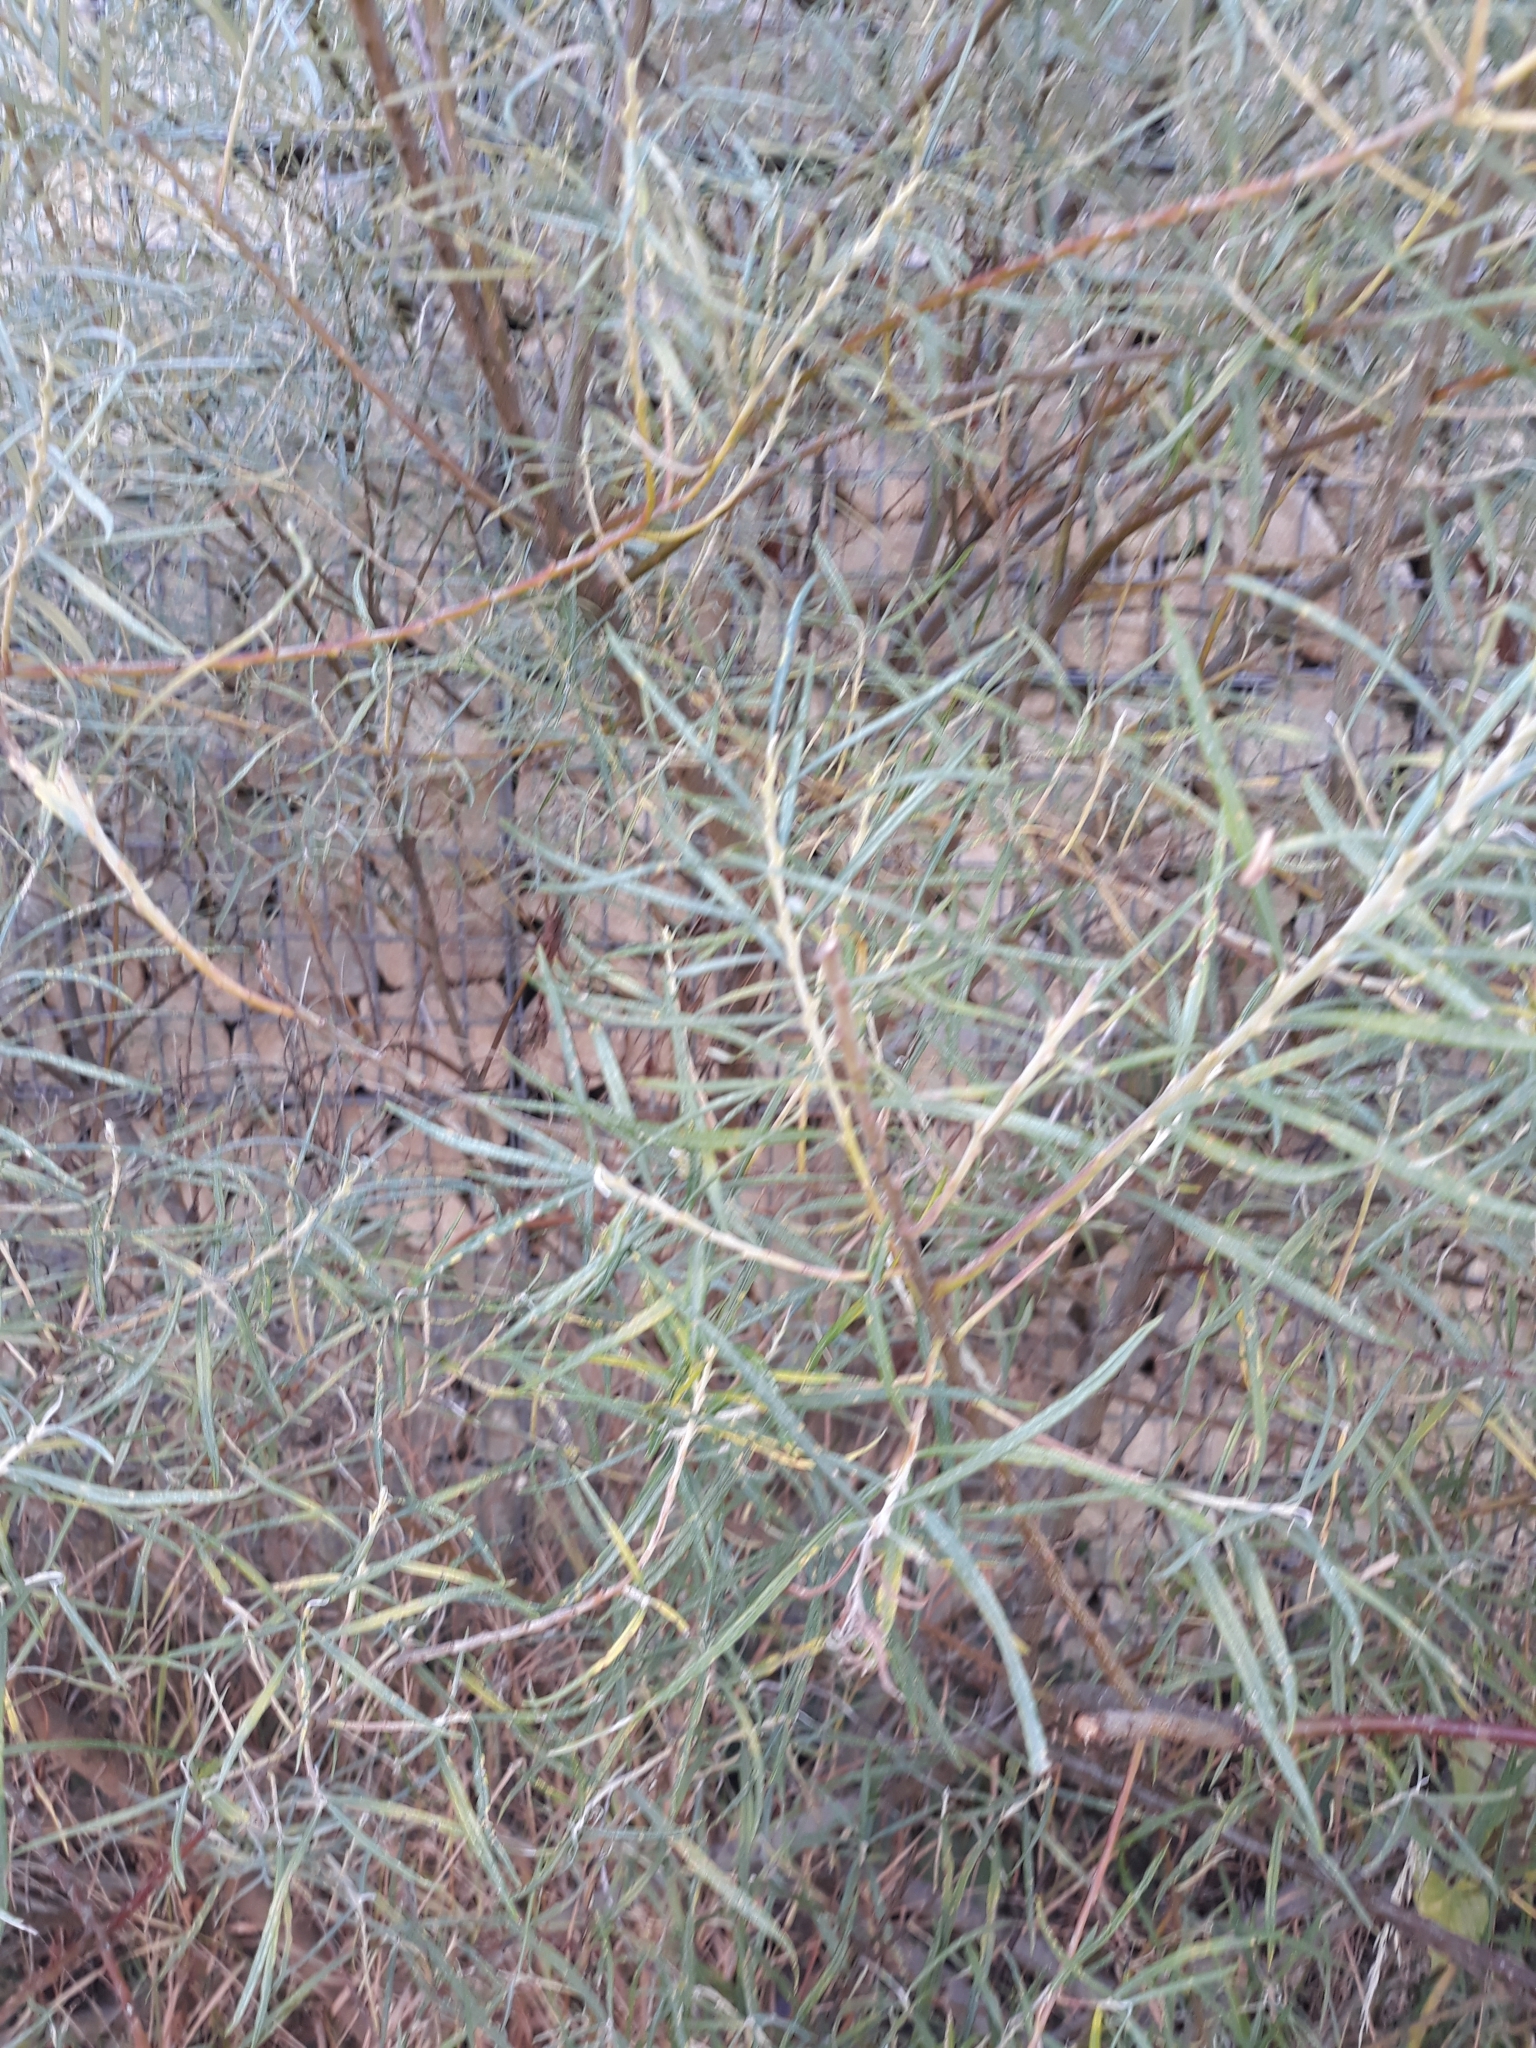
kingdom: Plantae
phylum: Tracheophyta
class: Magnoliopsida
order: Malpighiales
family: Salicaceae
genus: Salix
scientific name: Salix eleagnos
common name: Elaeagnus willow
